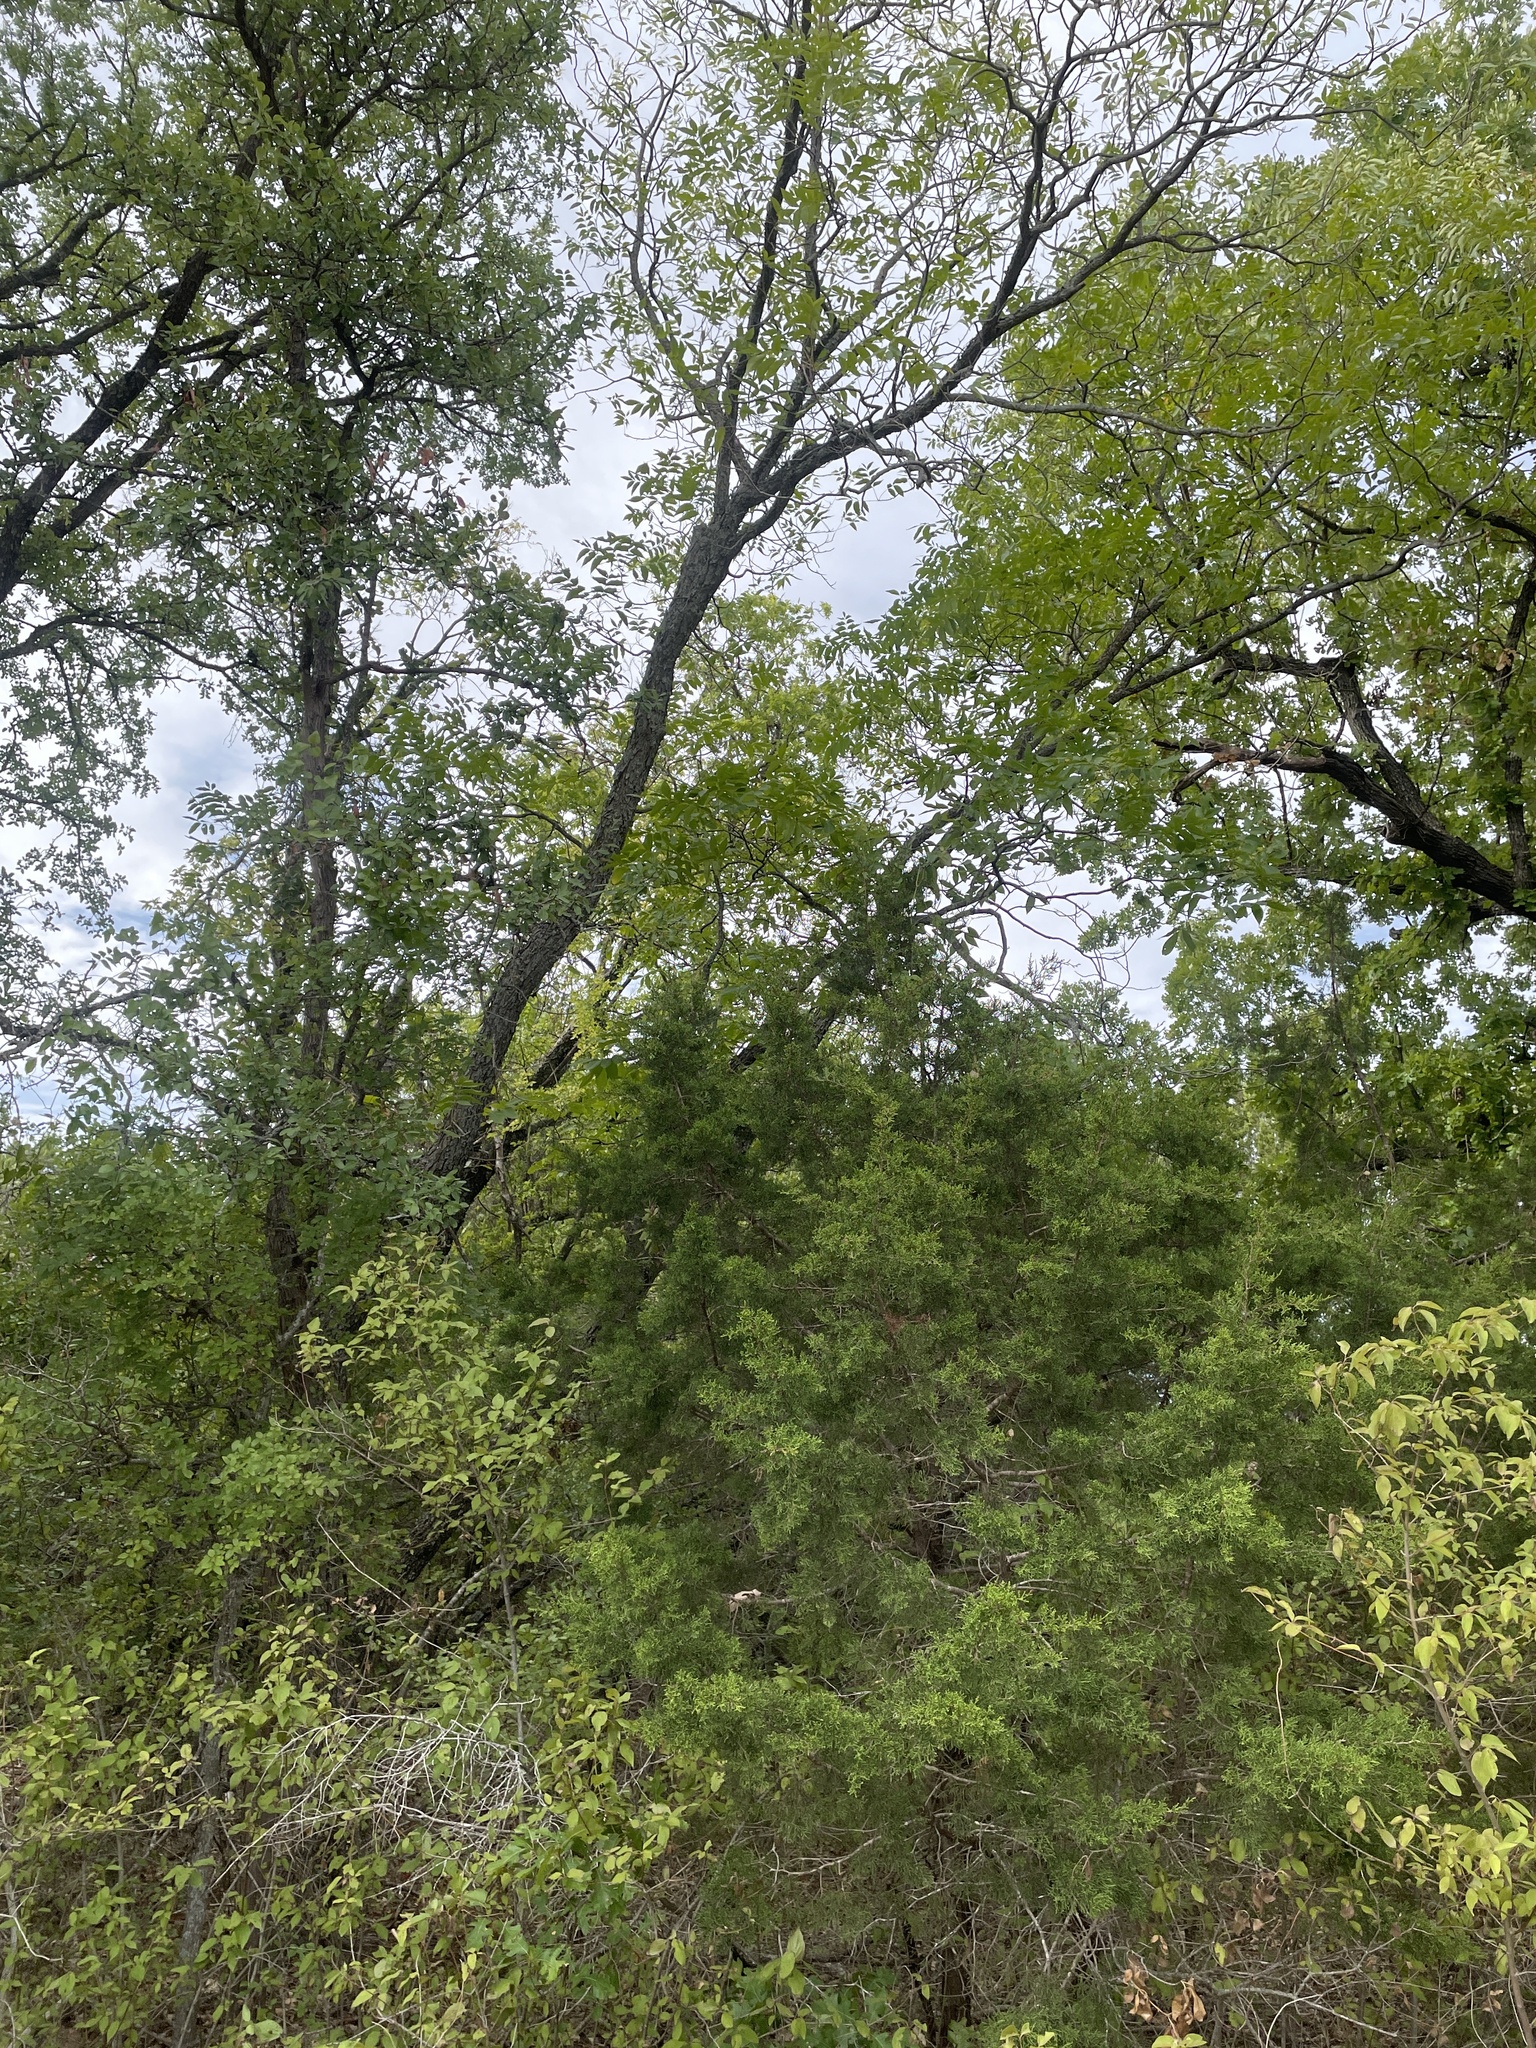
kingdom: Animalia
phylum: Chordata
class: Aves
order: Passeriformes
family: Paridae
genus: Poecile
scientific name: Poecile carolinensis
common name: Carolina chickadee
